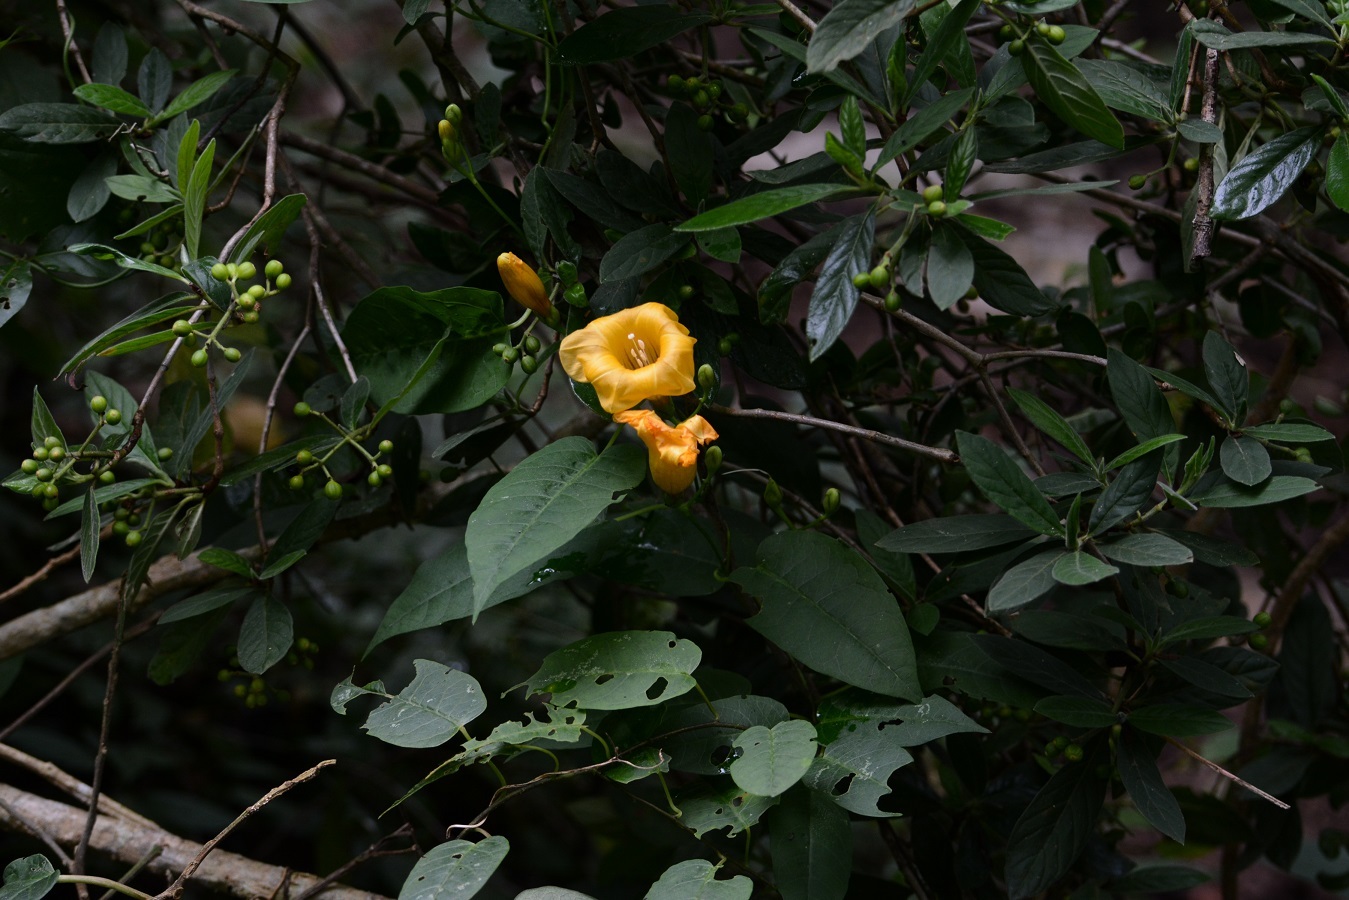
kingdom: Plantae
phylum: Tracheophyta
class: Magnoliopsida
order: Solanales
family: Convolvulaceae
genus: Ipomoea
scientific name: Ipomoea aurantiaca
